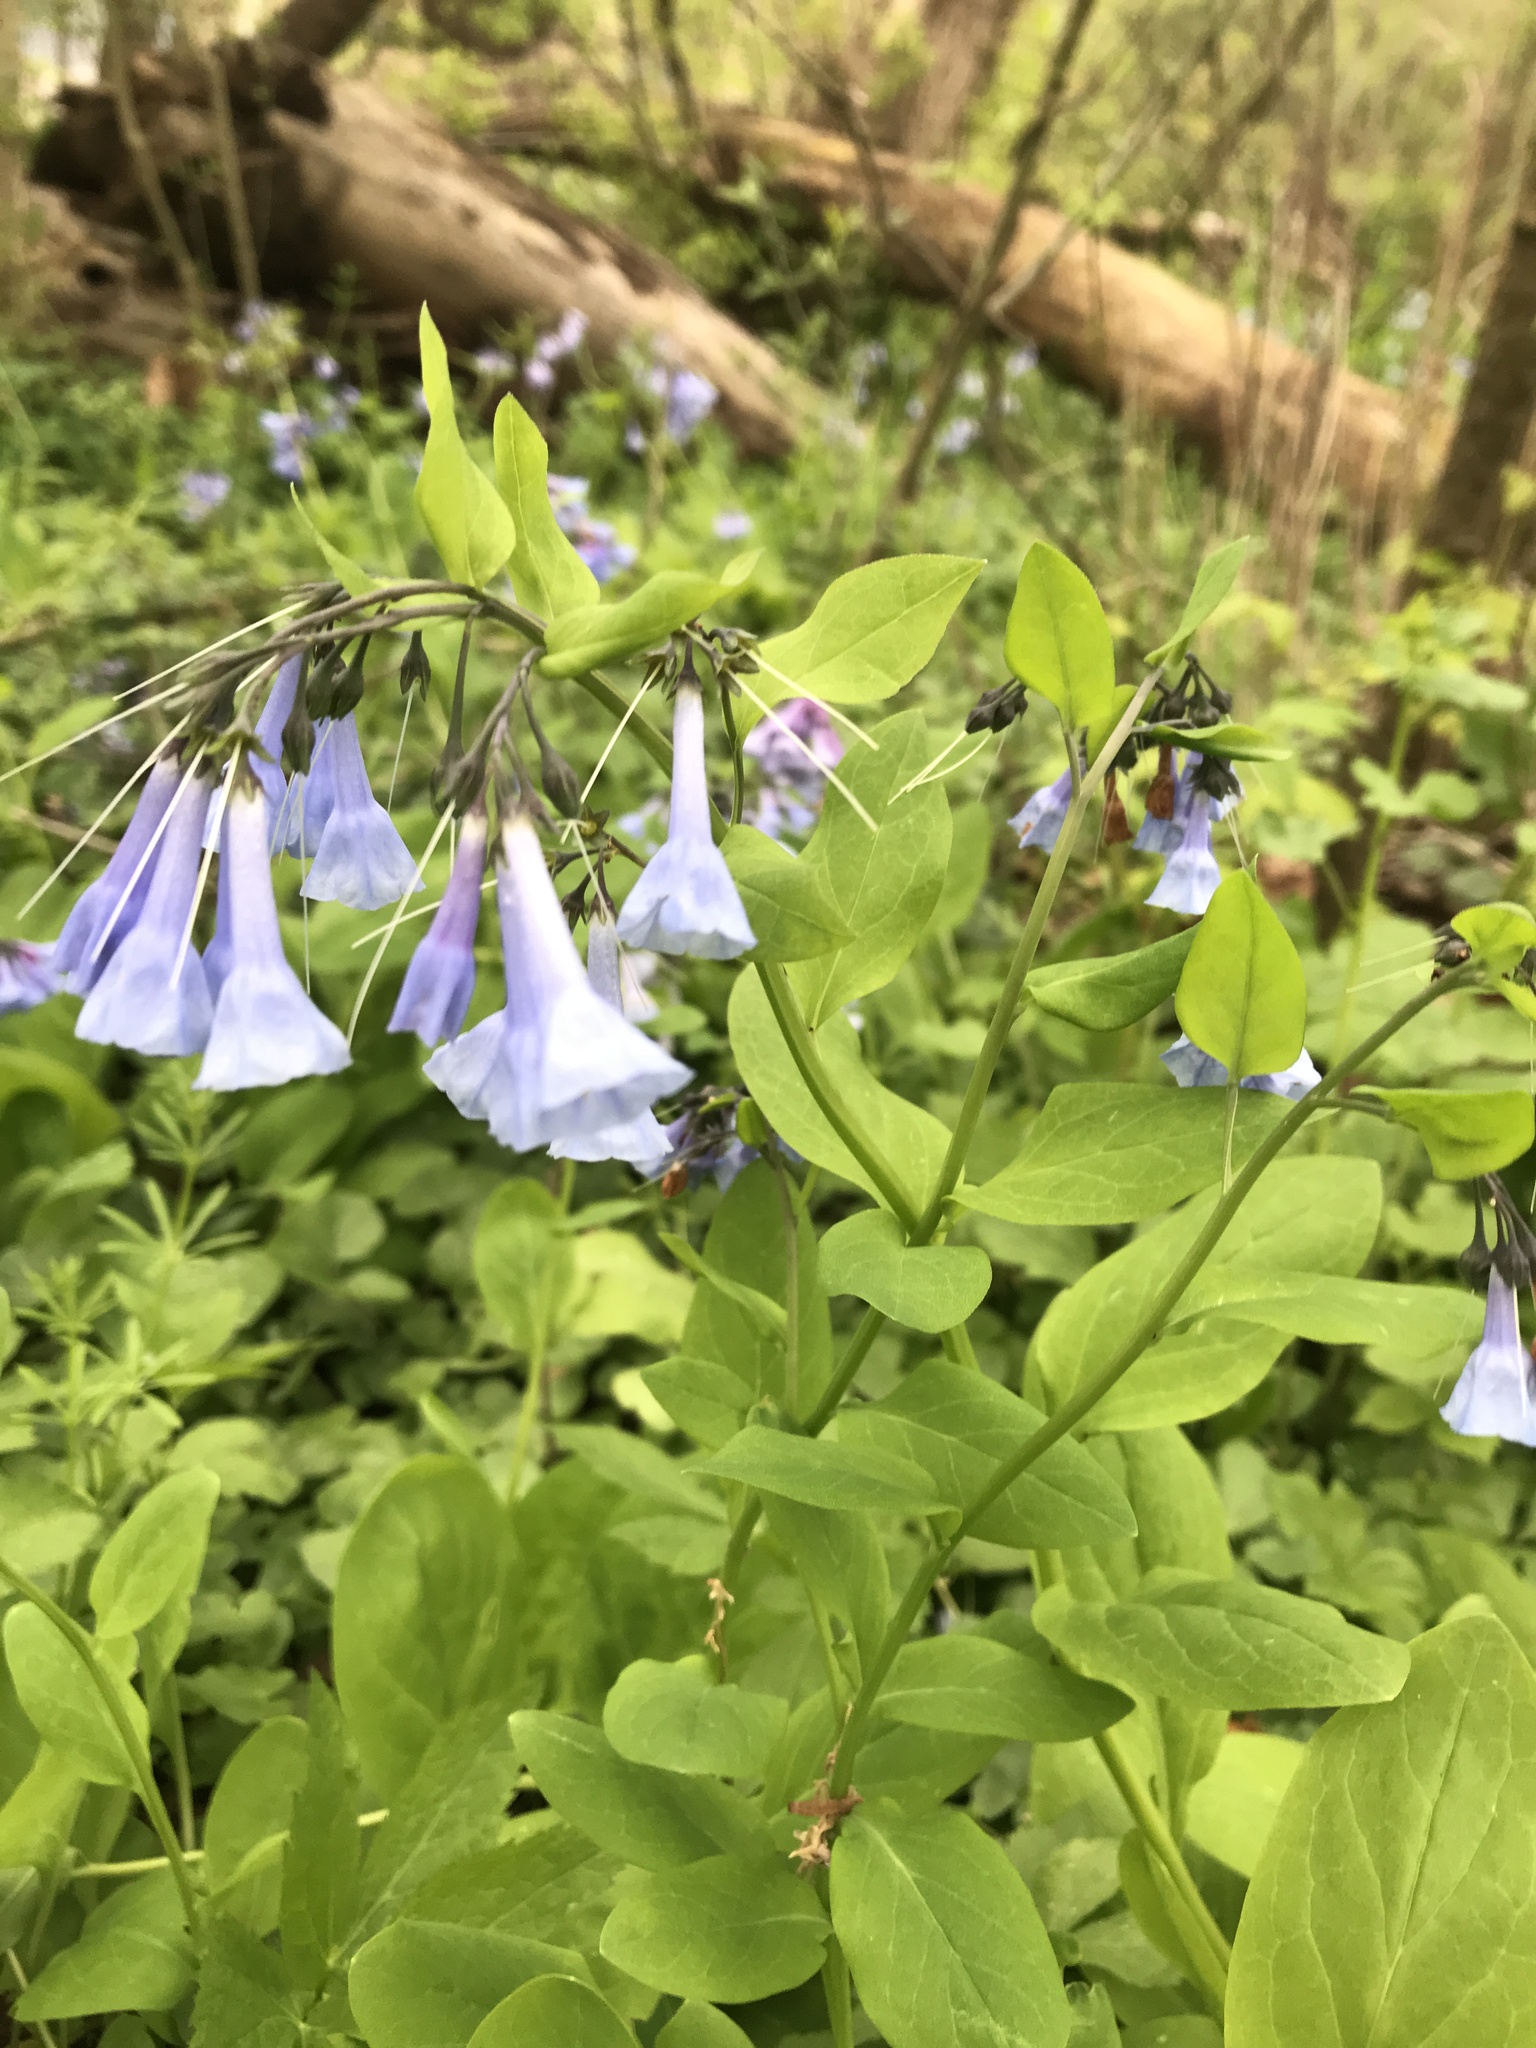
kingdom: Plantae
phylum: Tracheophyta
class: Magnoliopsida
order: Boraginales
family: Boraginaceae
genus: Mertensia
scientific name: Mertensia virginica
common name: Virginia bluebells
